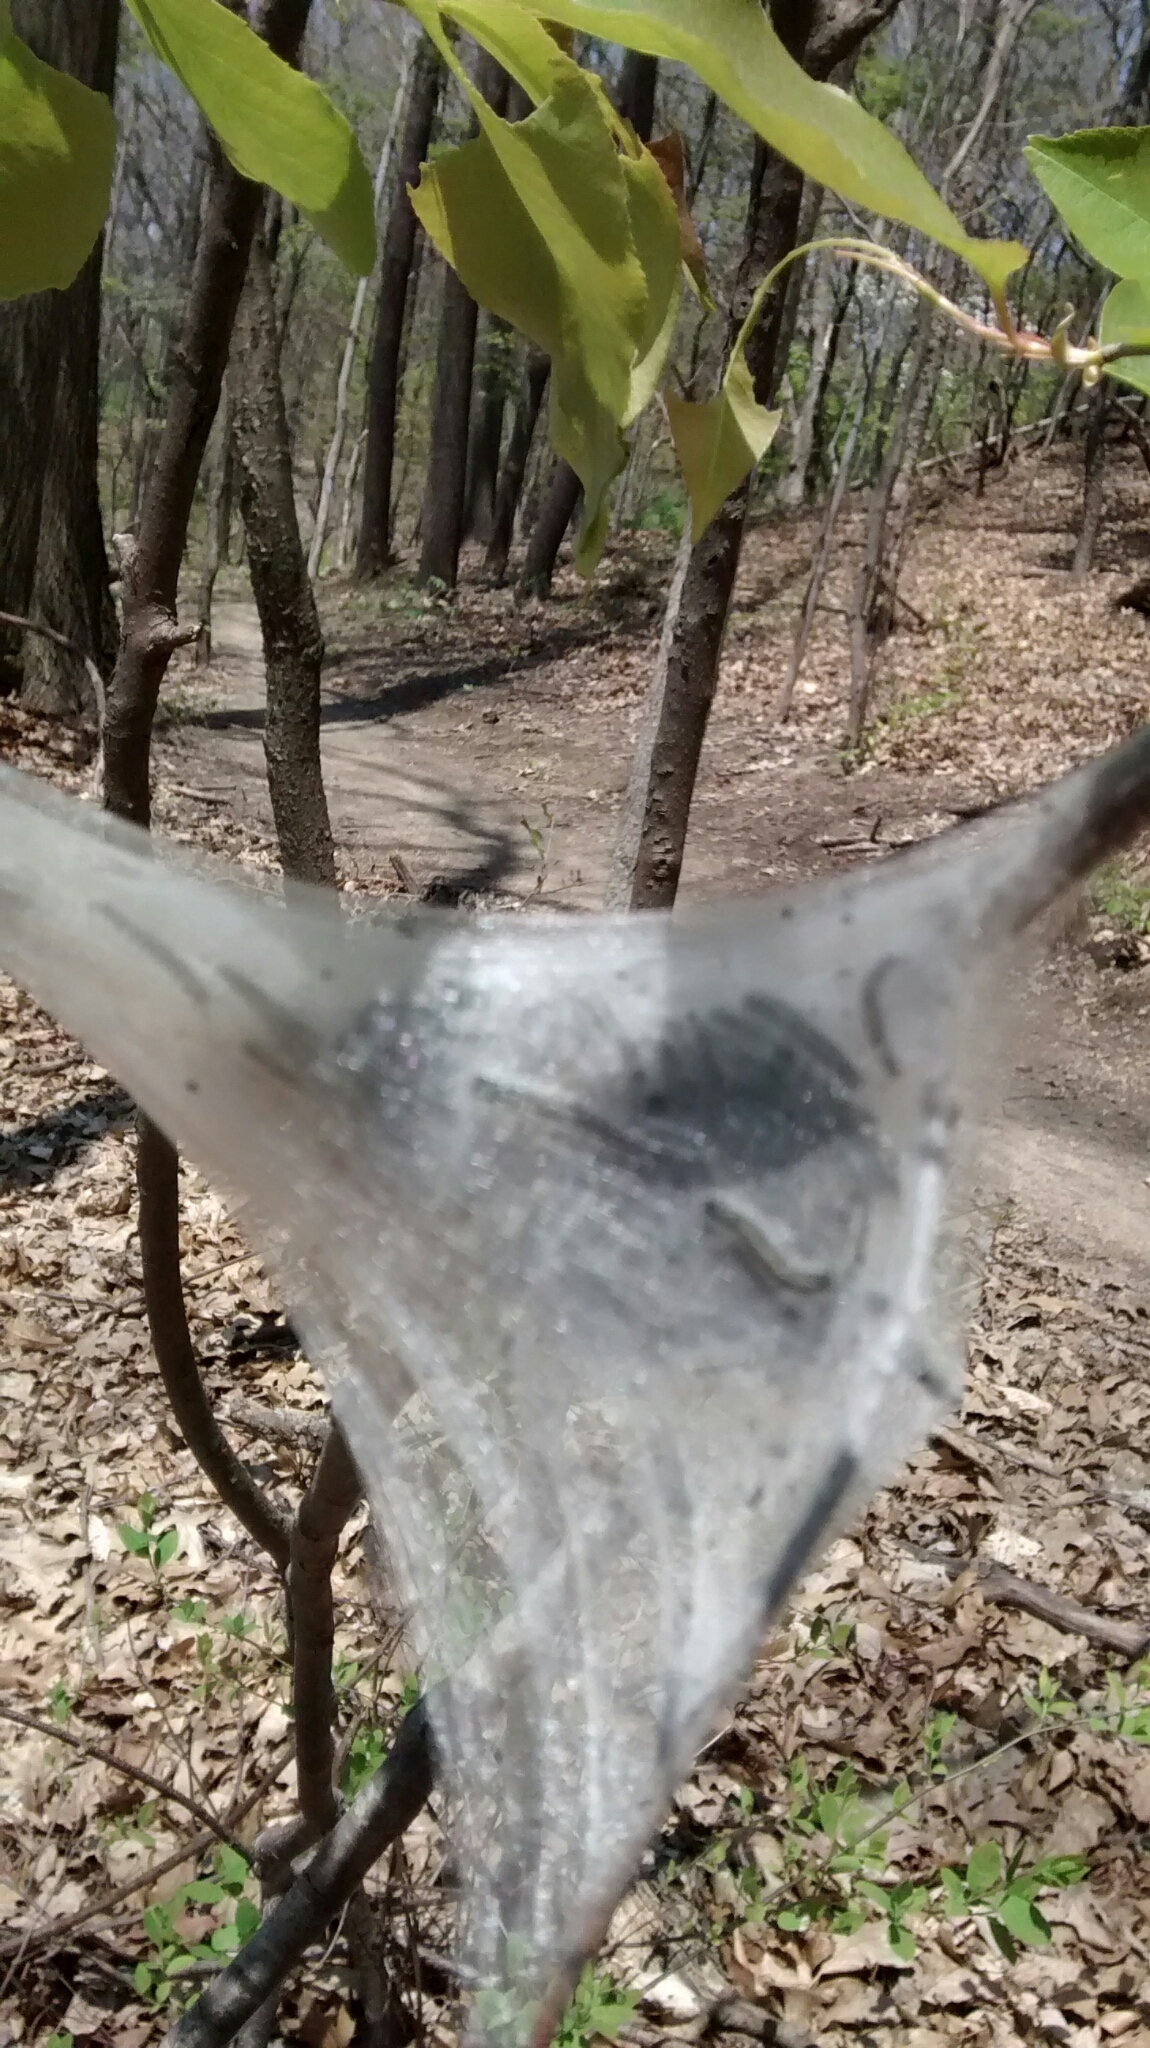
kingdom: Animalia
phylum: Arthropoda
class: Insecta
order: Lepidoptera
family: Lasiocampidae
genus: Malacosoma
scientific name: Malacosoma americana
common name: Eastern tent caterpillar moth
